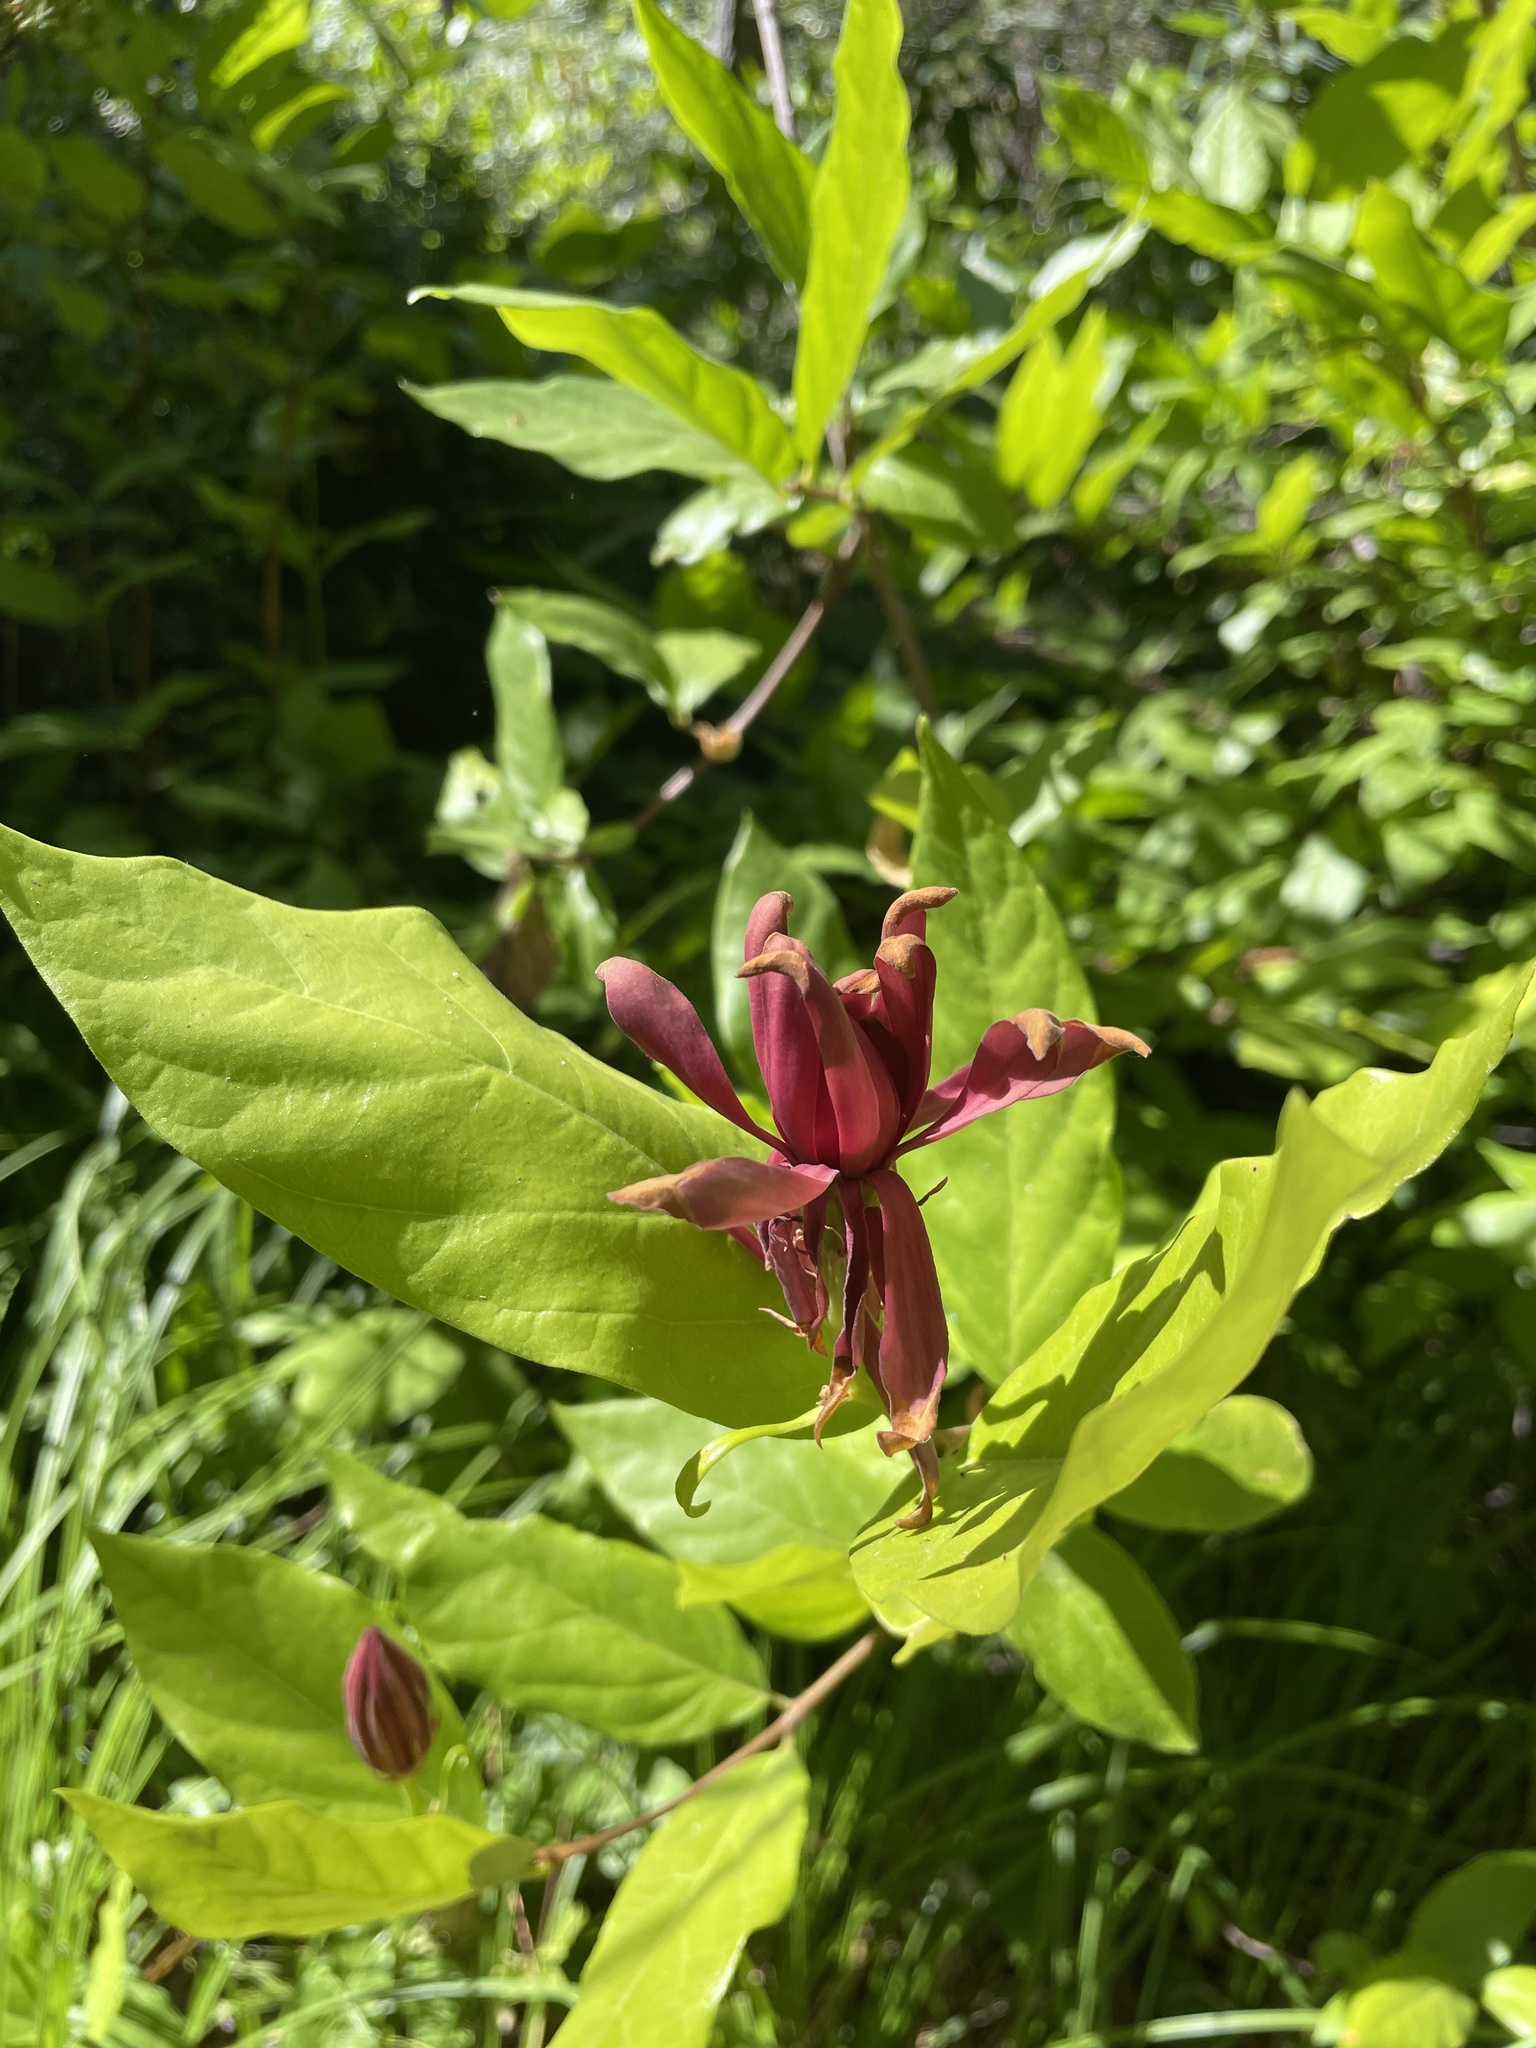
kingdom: Plantae
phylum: Tracheophyta
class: Magnoliopsida
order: Laurales
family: Calycanthaceae
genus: Calycanthus
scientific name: Calycanthus occidentalis
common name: California spicebush
